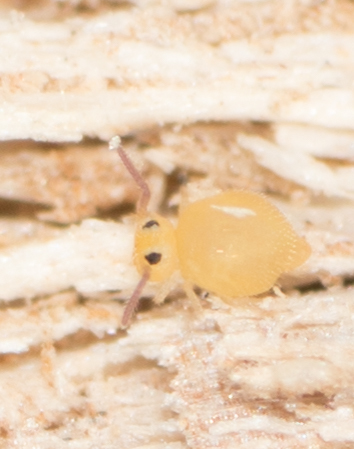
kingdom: Animalia
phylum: Arthropoda
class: Collembola
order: Symphypleona
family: Bourletiellidae
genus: Bourletiella
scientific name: Bourletiella arvalis
